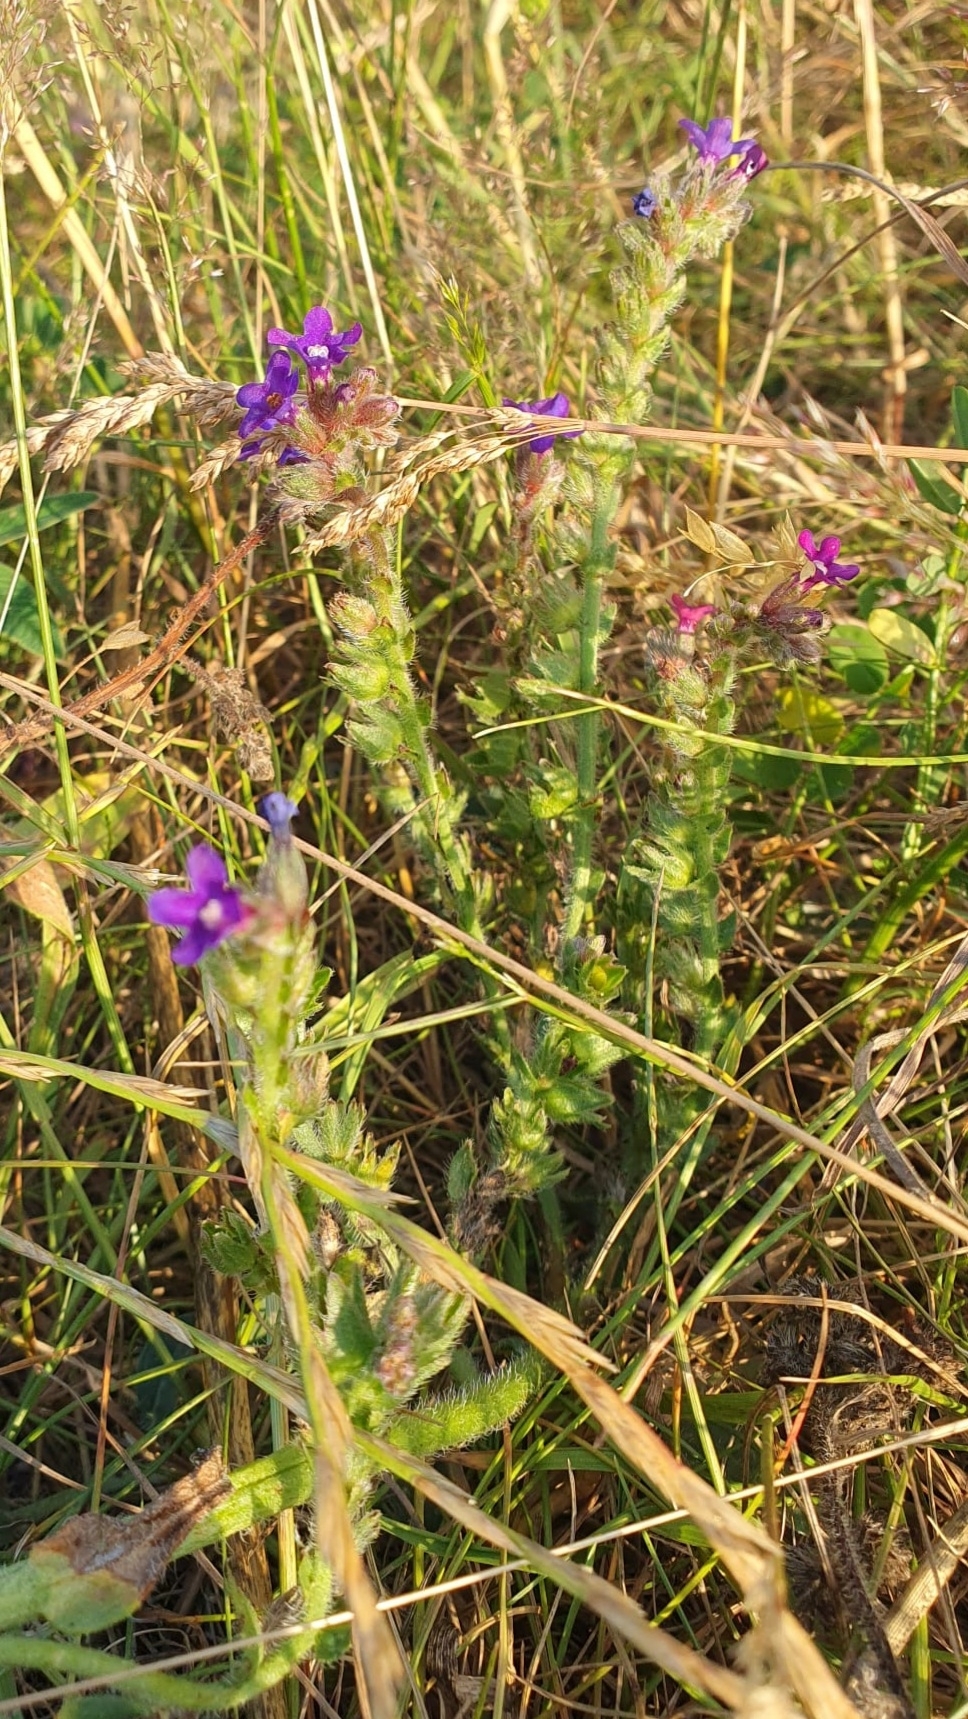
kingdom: Plantae
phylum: Tracheophyta
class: Magnoliopsida
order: Boraginales
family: Boraginaceae
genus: Anchusa
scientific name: Anchusa officinalis
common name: Alkanet
